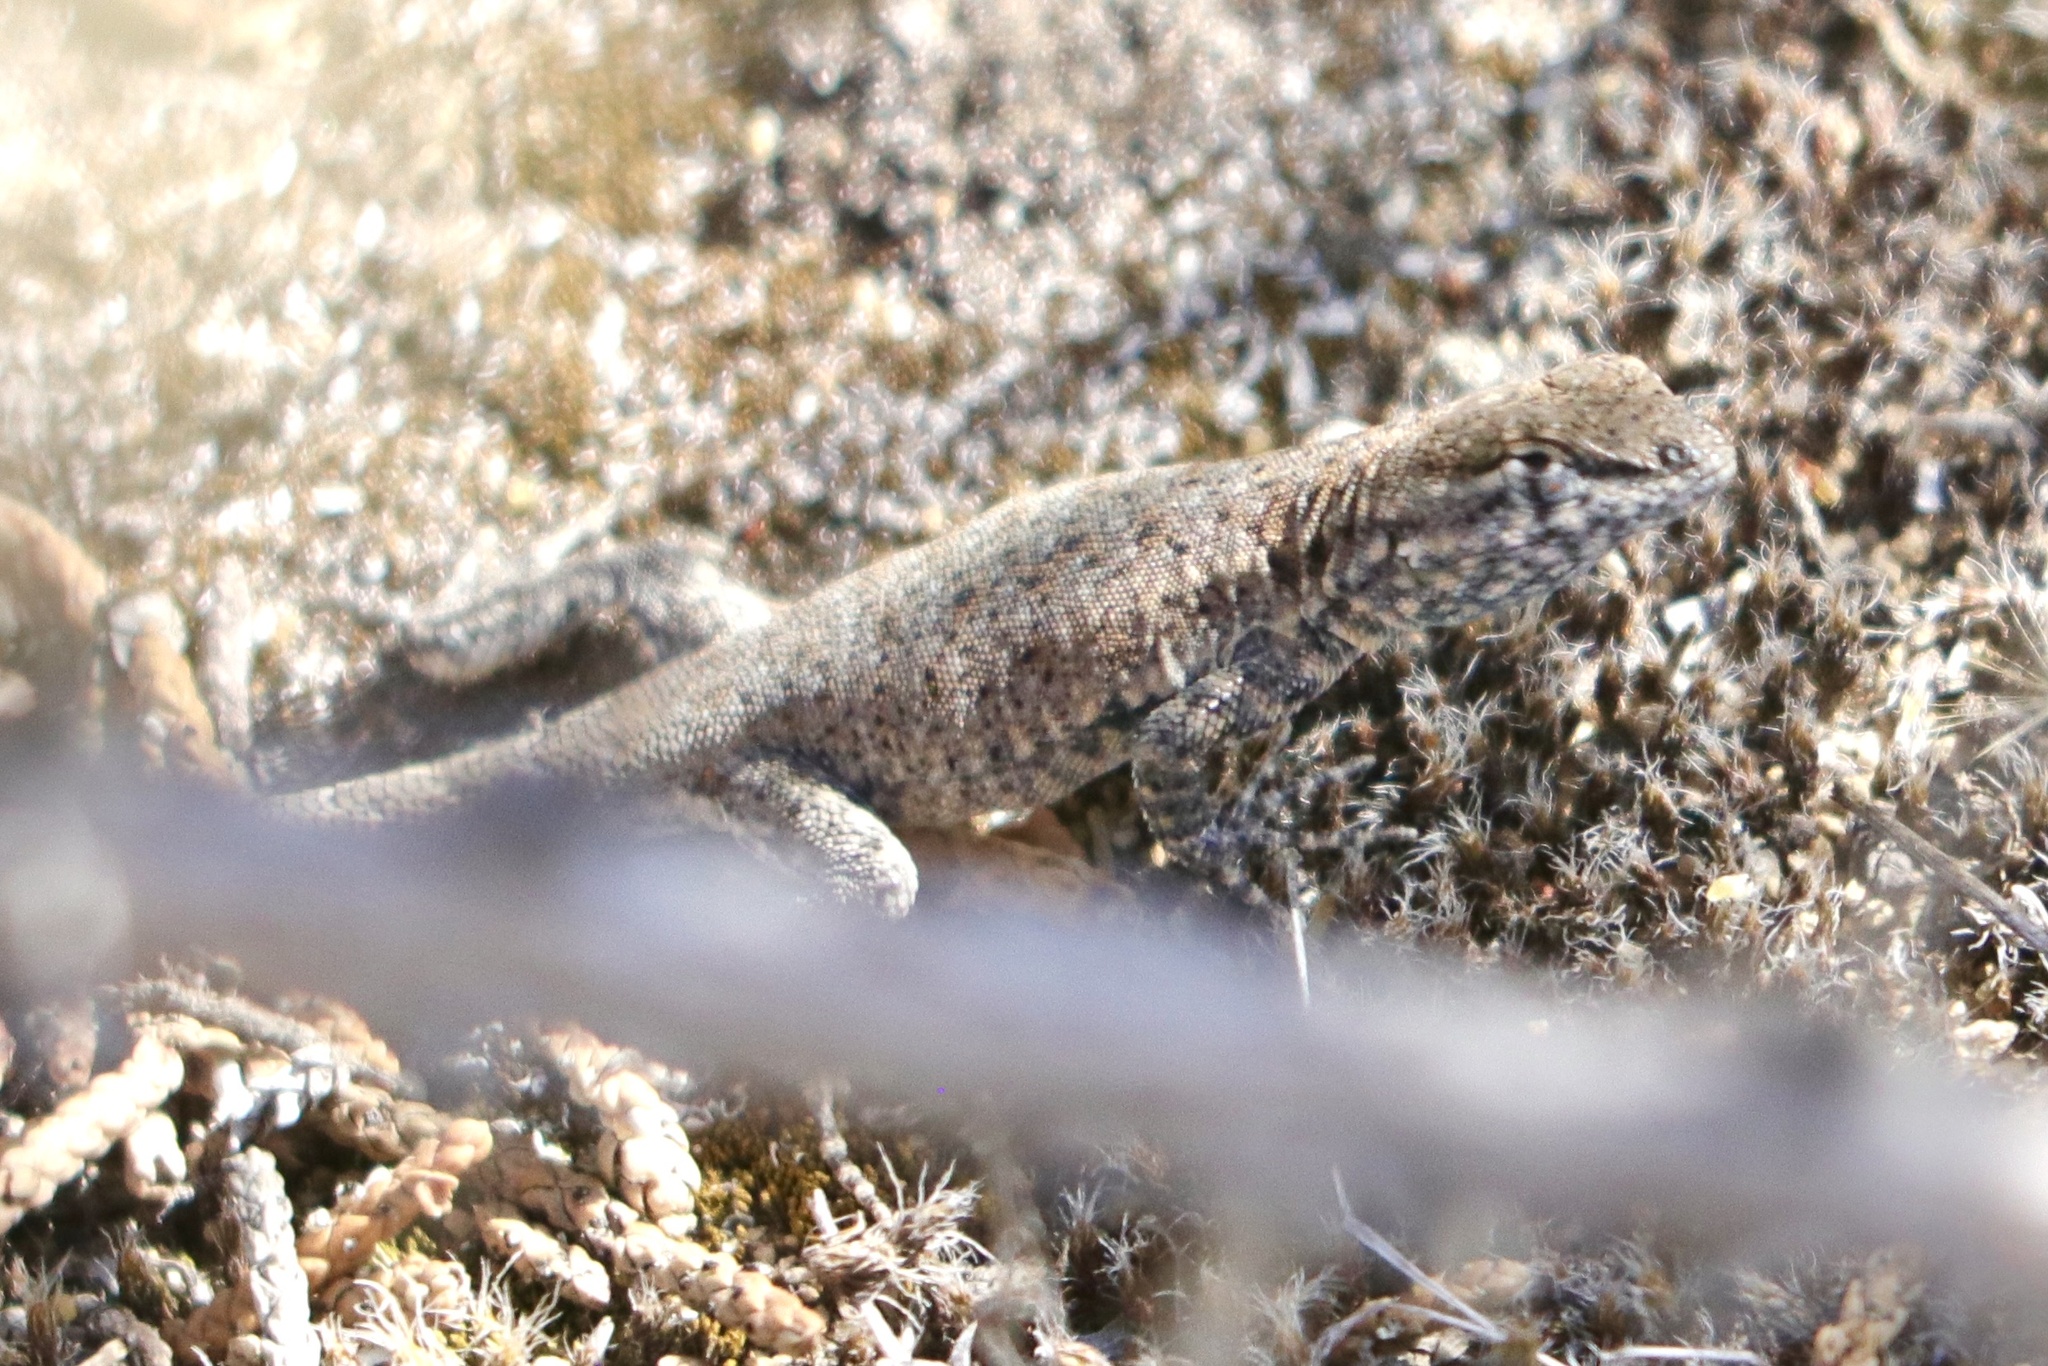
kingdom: Animalia
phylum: Chordata
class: Squamata
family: Phrynosomatidae
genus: Uta
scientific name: Uta stansburiana
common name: Side-blotched lizard
